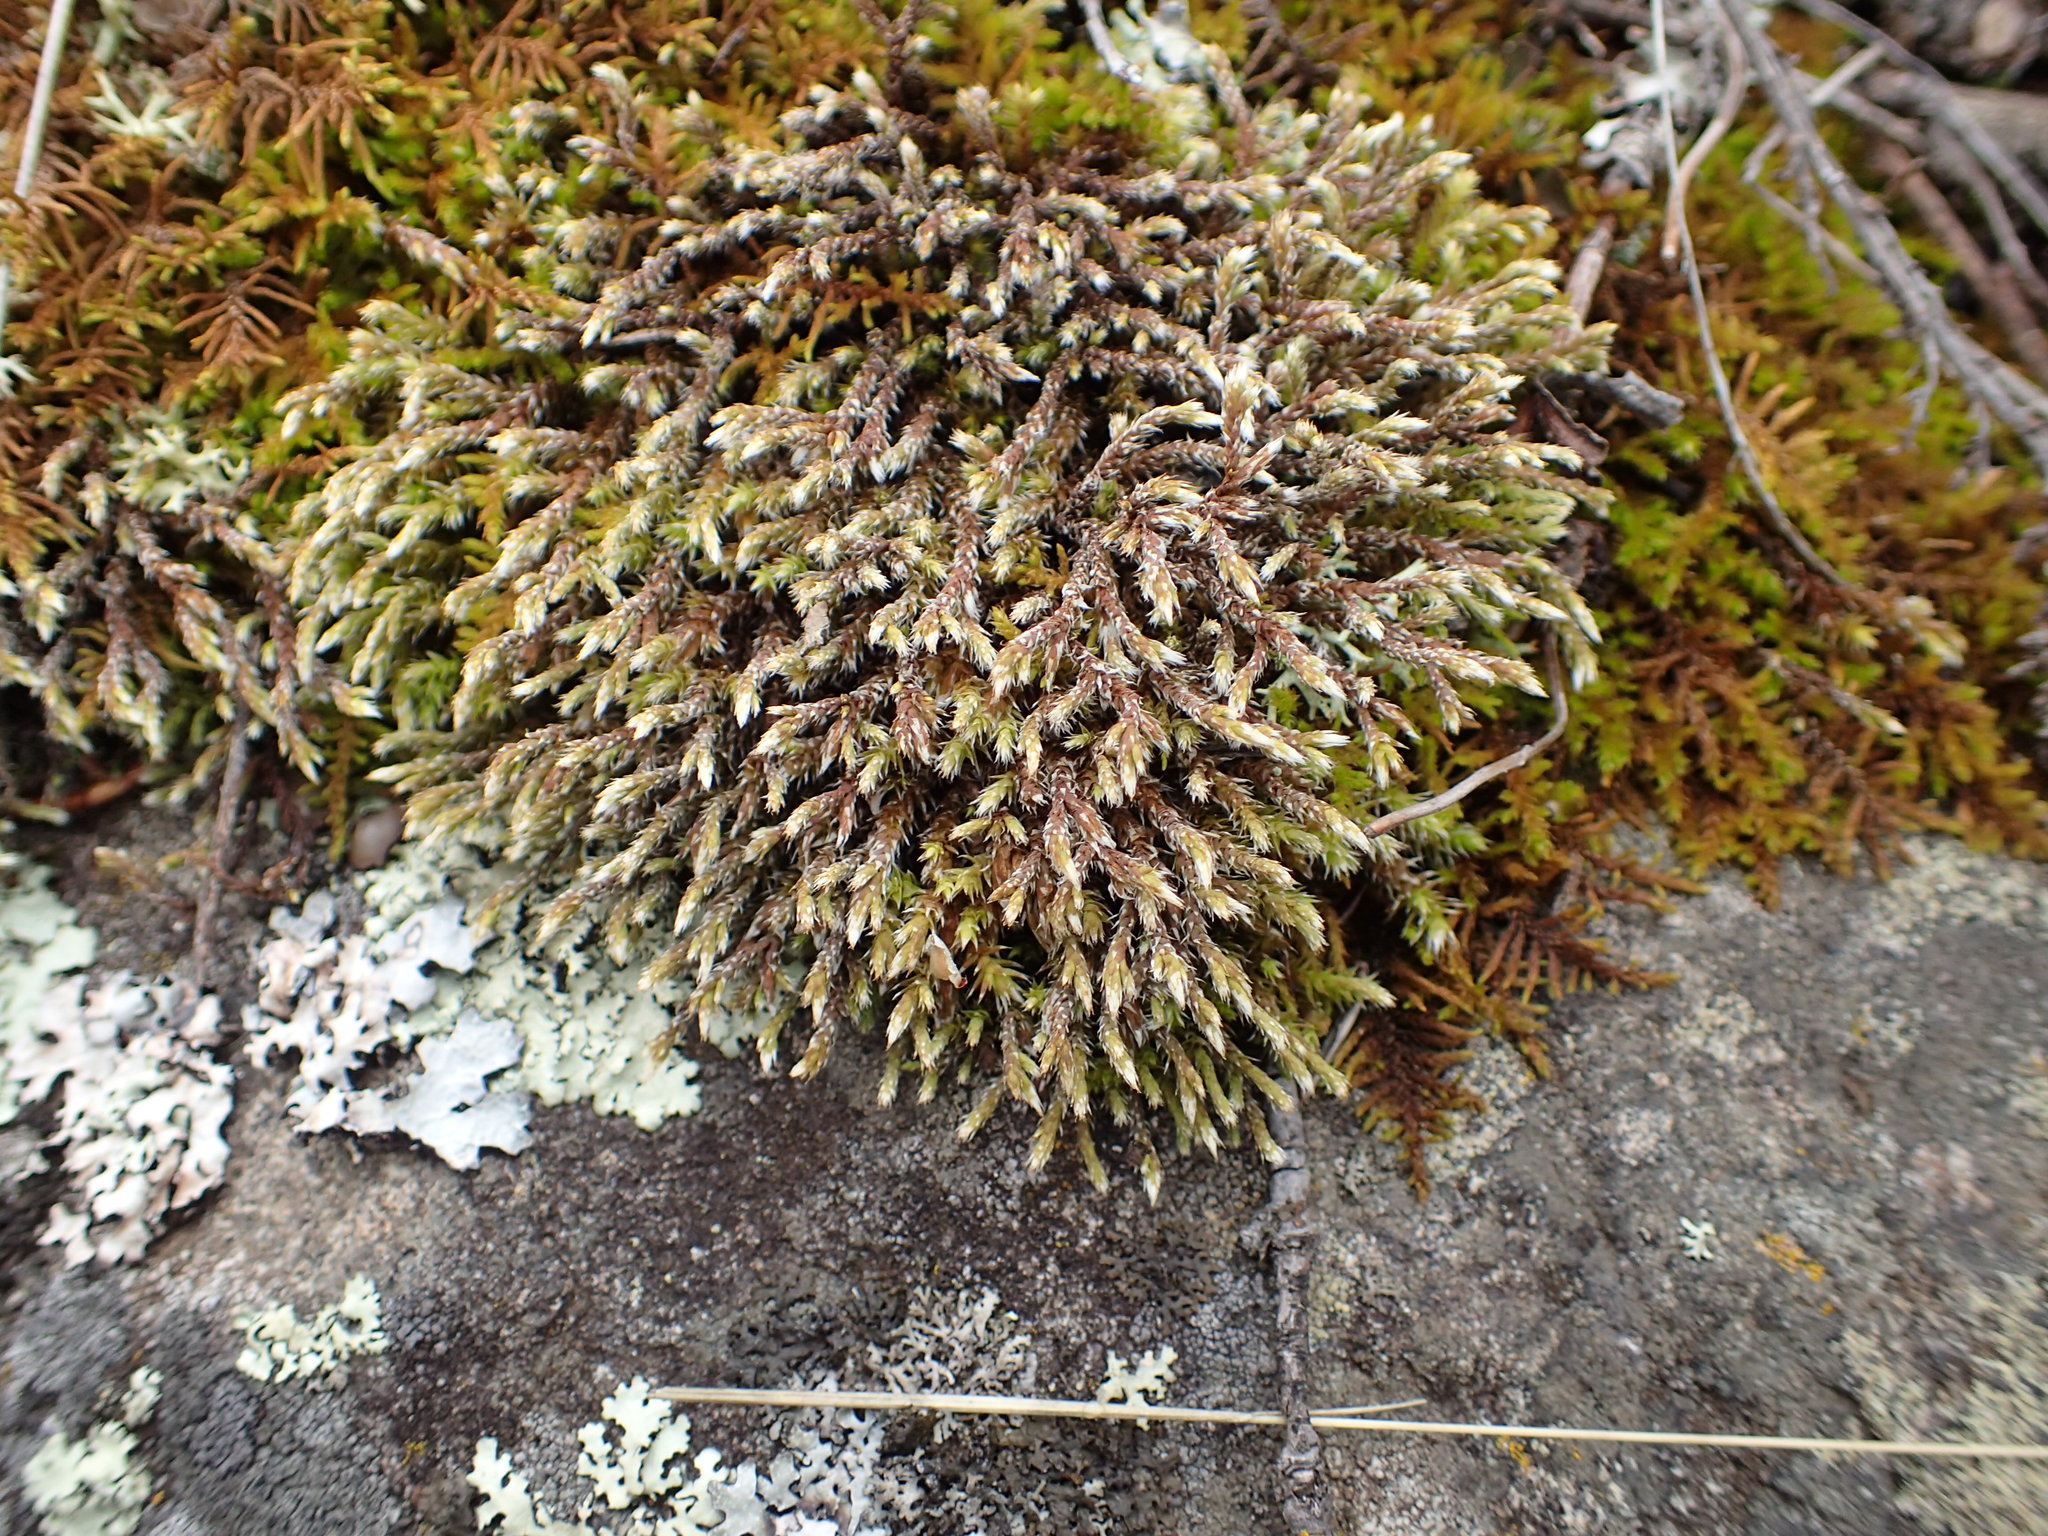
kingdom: Plantae
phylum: Bryophyta
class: Bryopsida
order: Hedwigiales
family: Hedwigiaceae
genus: Hedwigia
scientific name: Hedwigia ciliata
